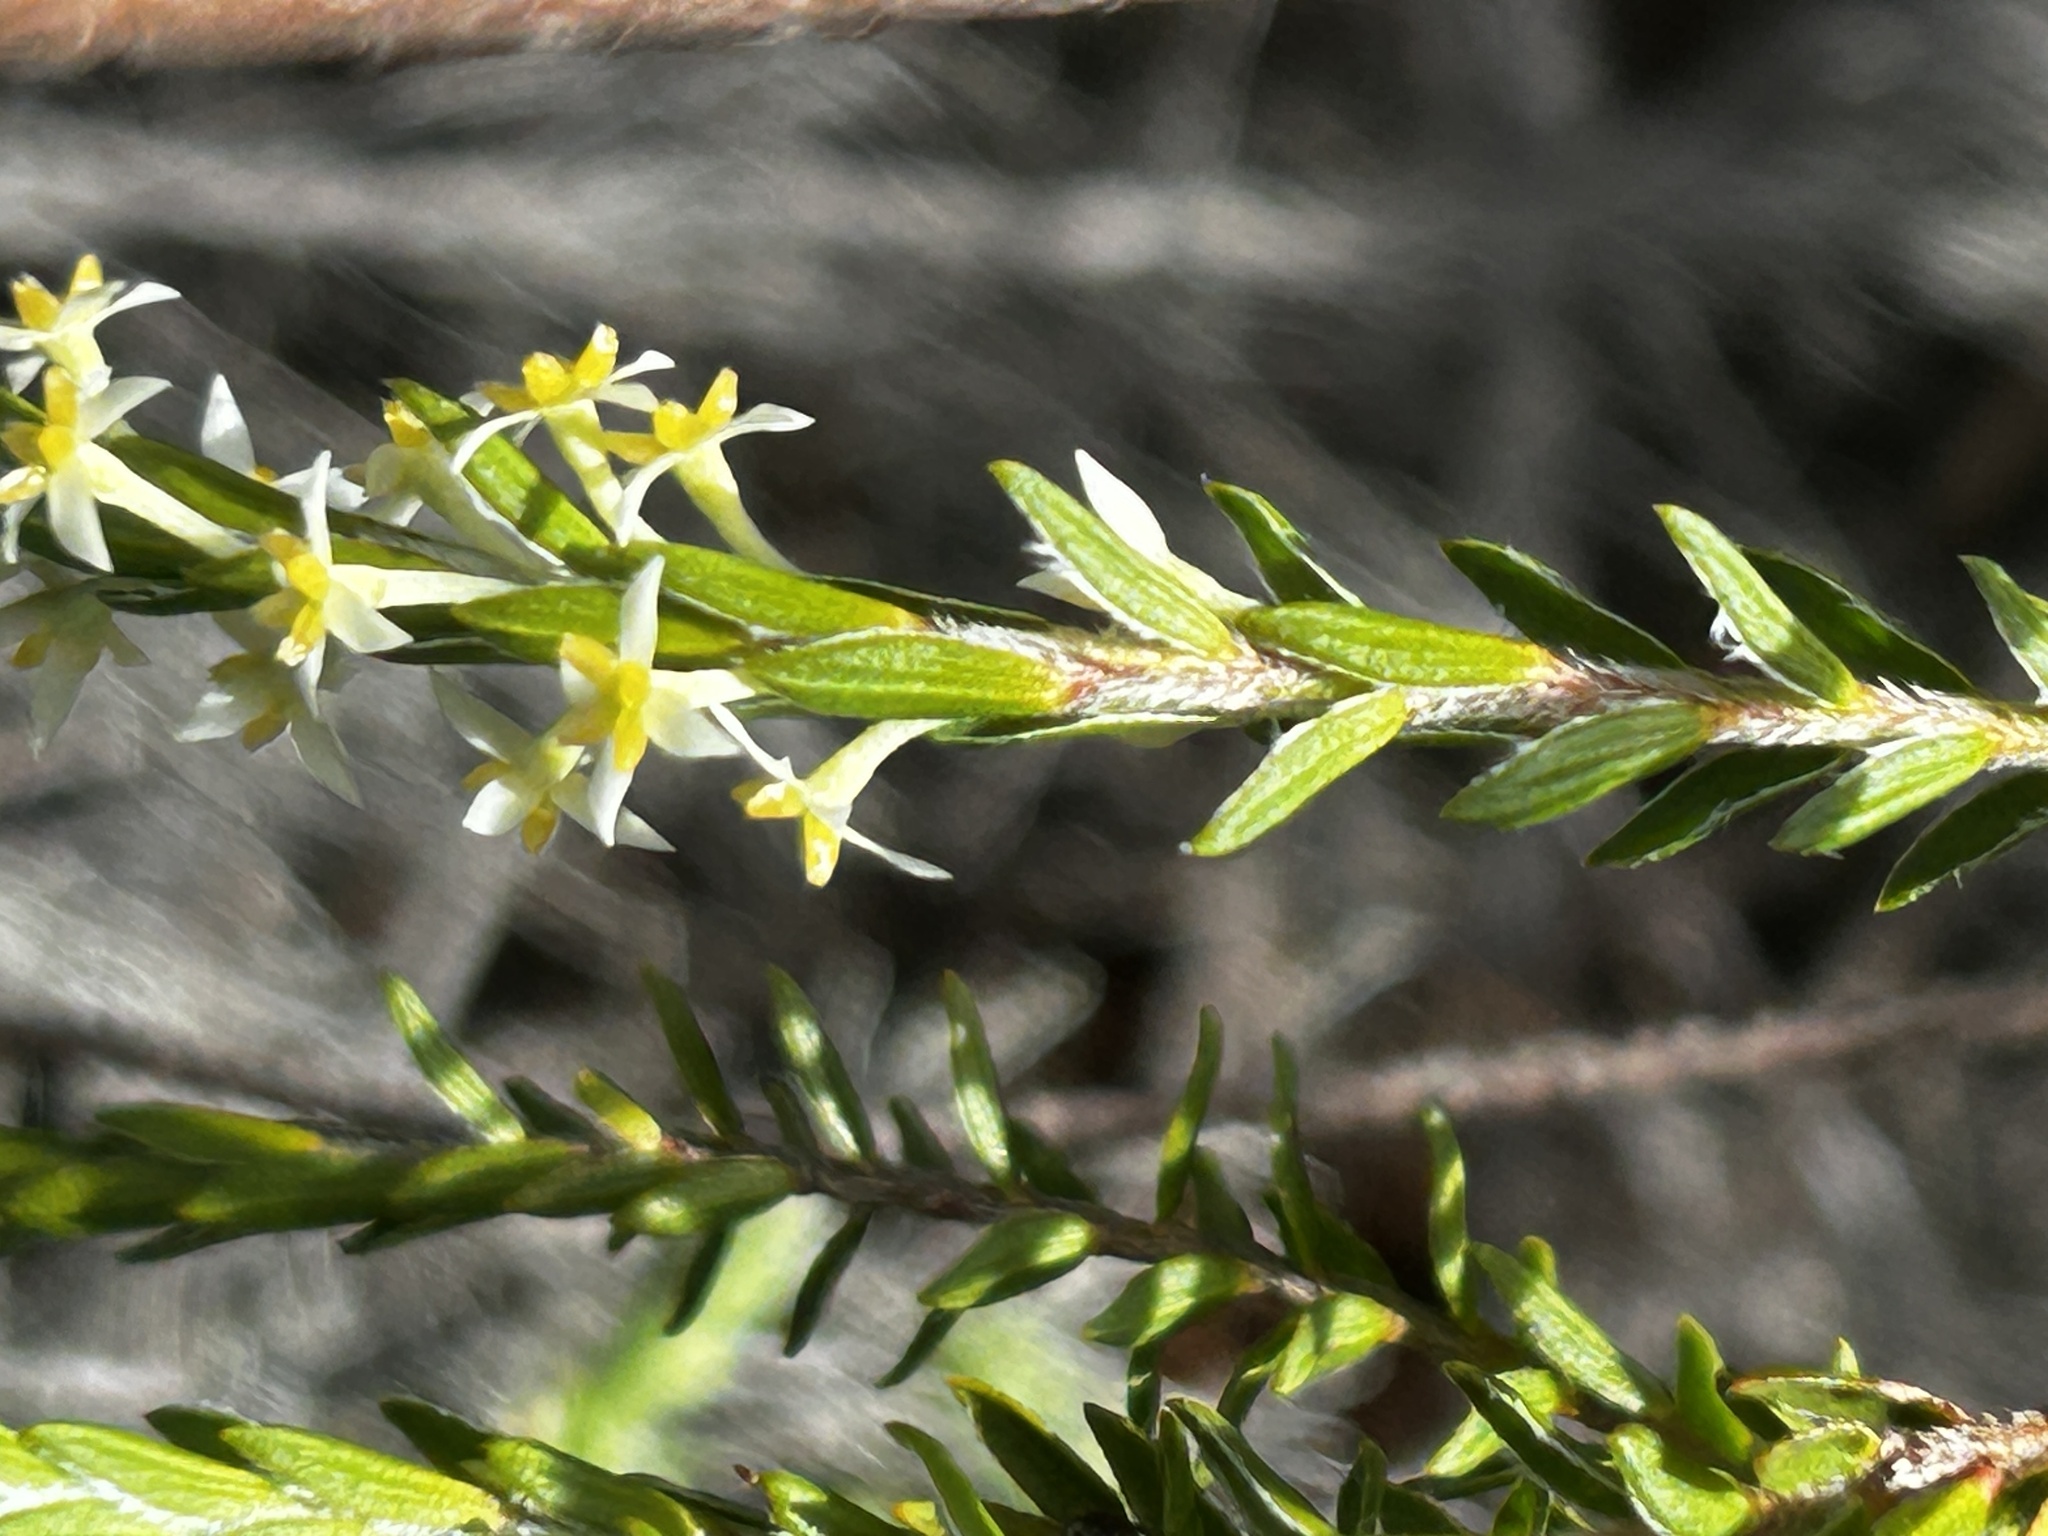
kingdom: Plantae
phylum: Tracheophyta
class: Magnoliopsida
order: Malvales
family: Thymelaeaceae
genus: Struthiola
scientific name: Struthiola striata
